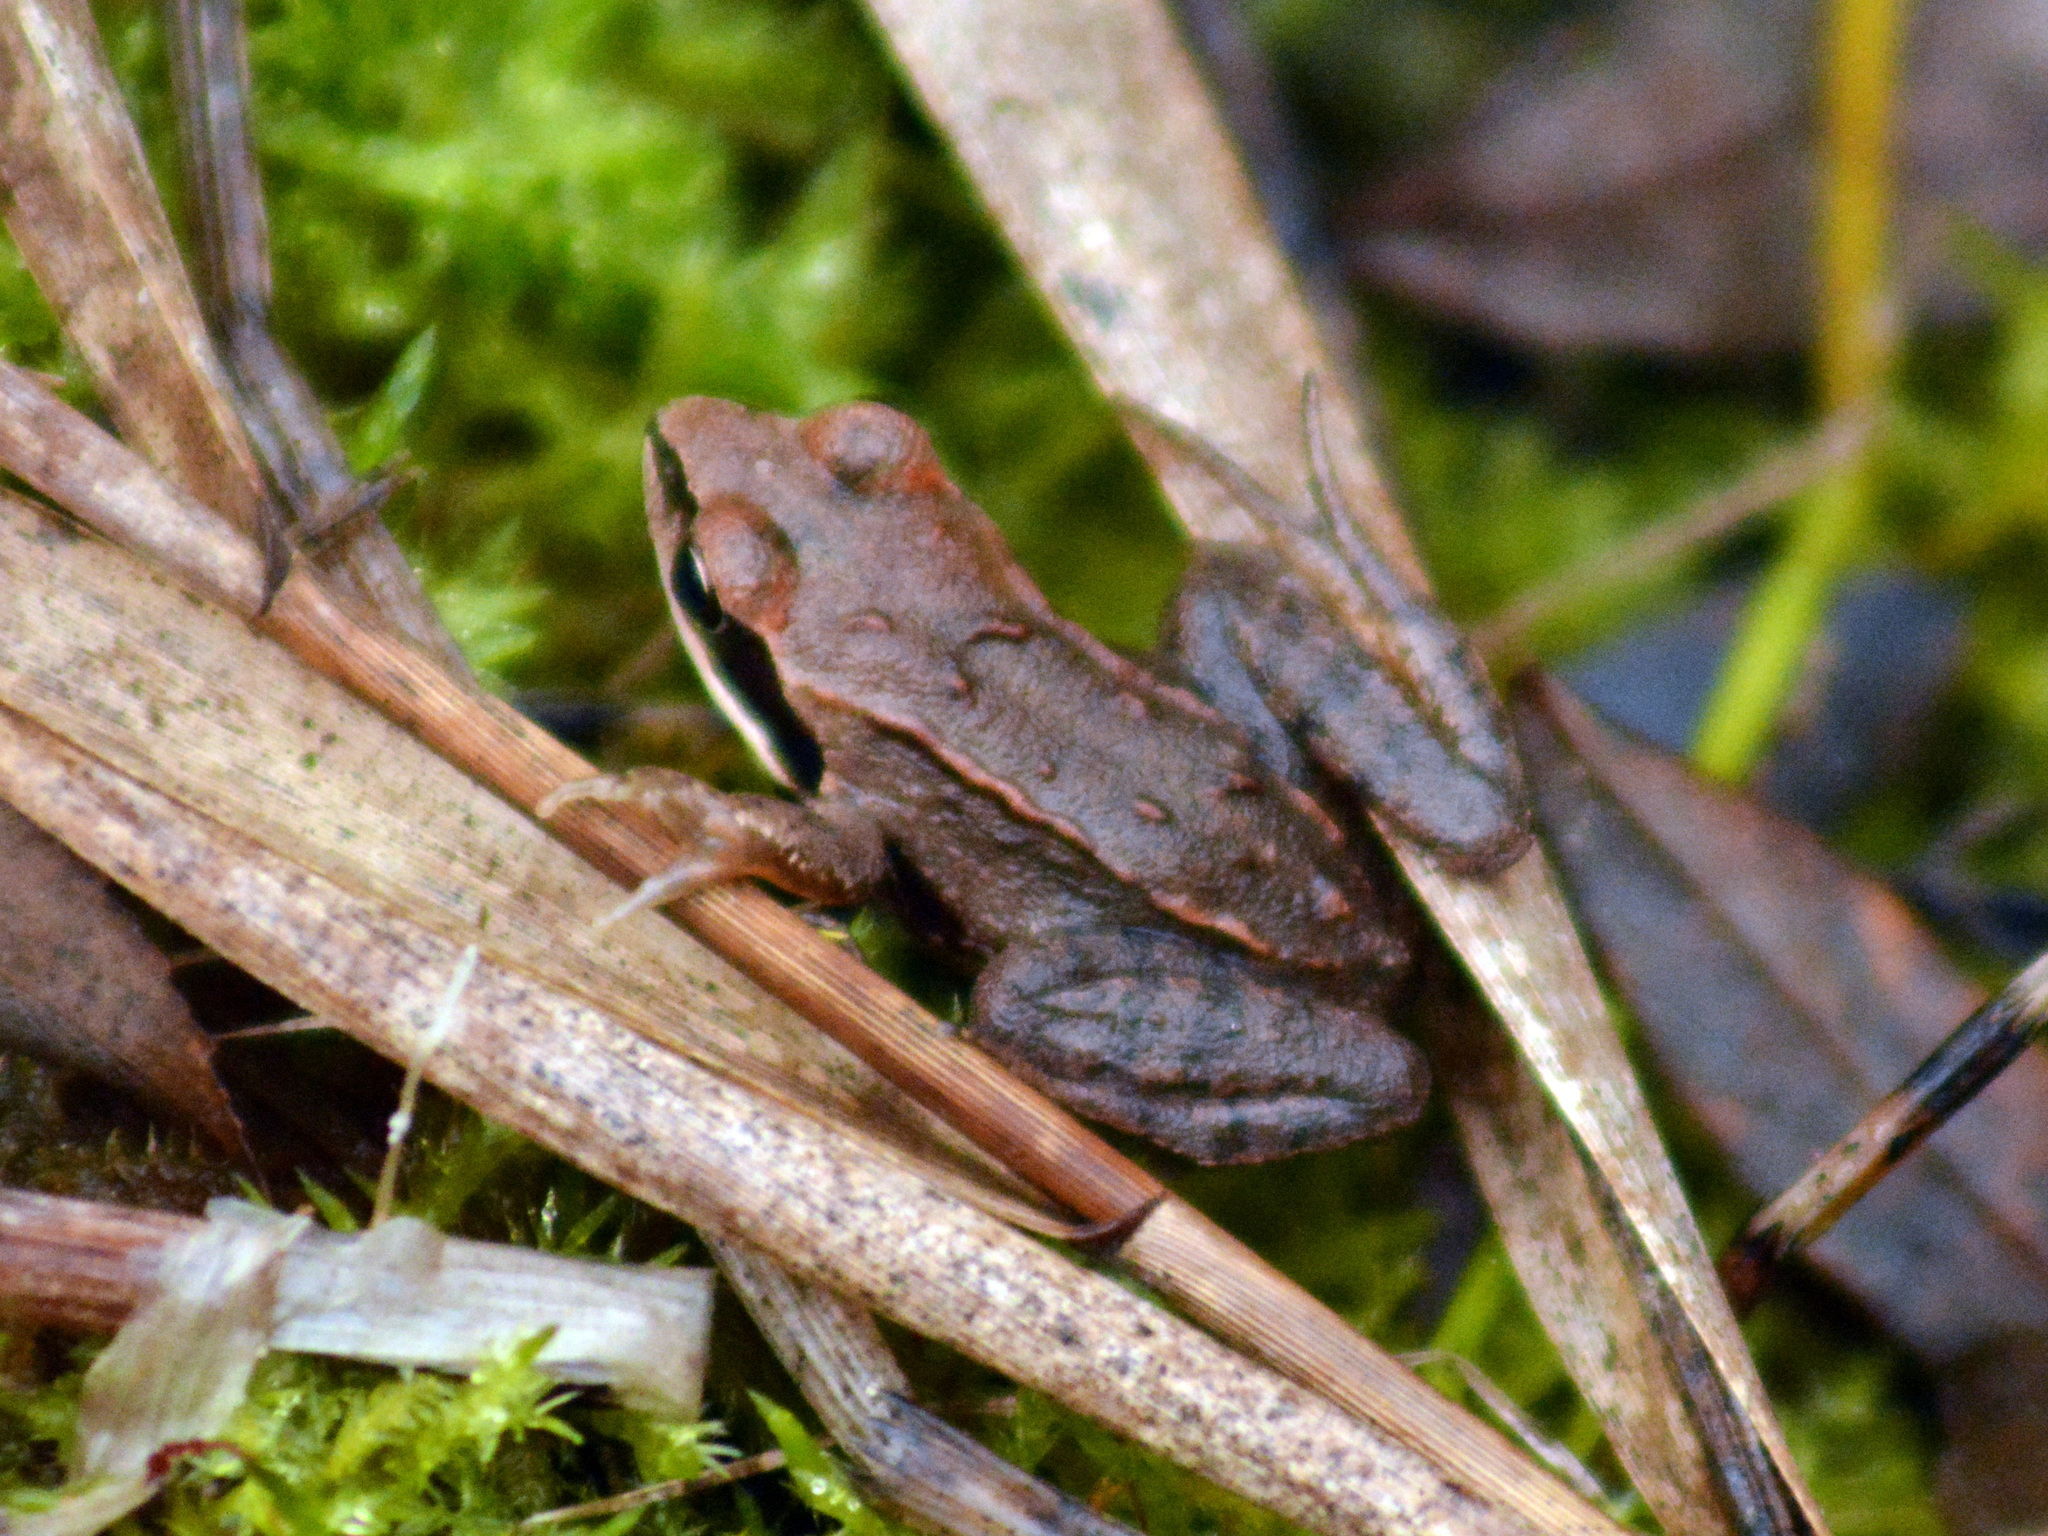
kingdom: Animalia
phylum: Chordata
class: Amphibia
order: Anura
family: Ranidae
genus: Rana
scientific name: Rana arvalis
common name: Moor frog
